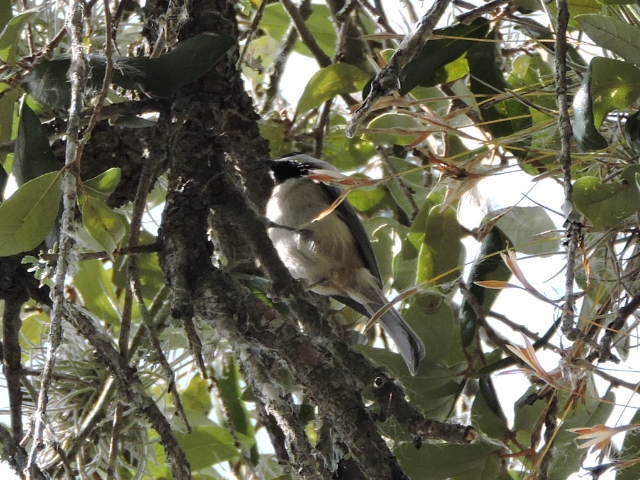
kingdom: Animalia
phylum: Chordata
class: Aves
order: Passeriformes
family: Paridae
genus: Poecile
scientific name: Poecile carolinensis
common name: Carolina chickadee
